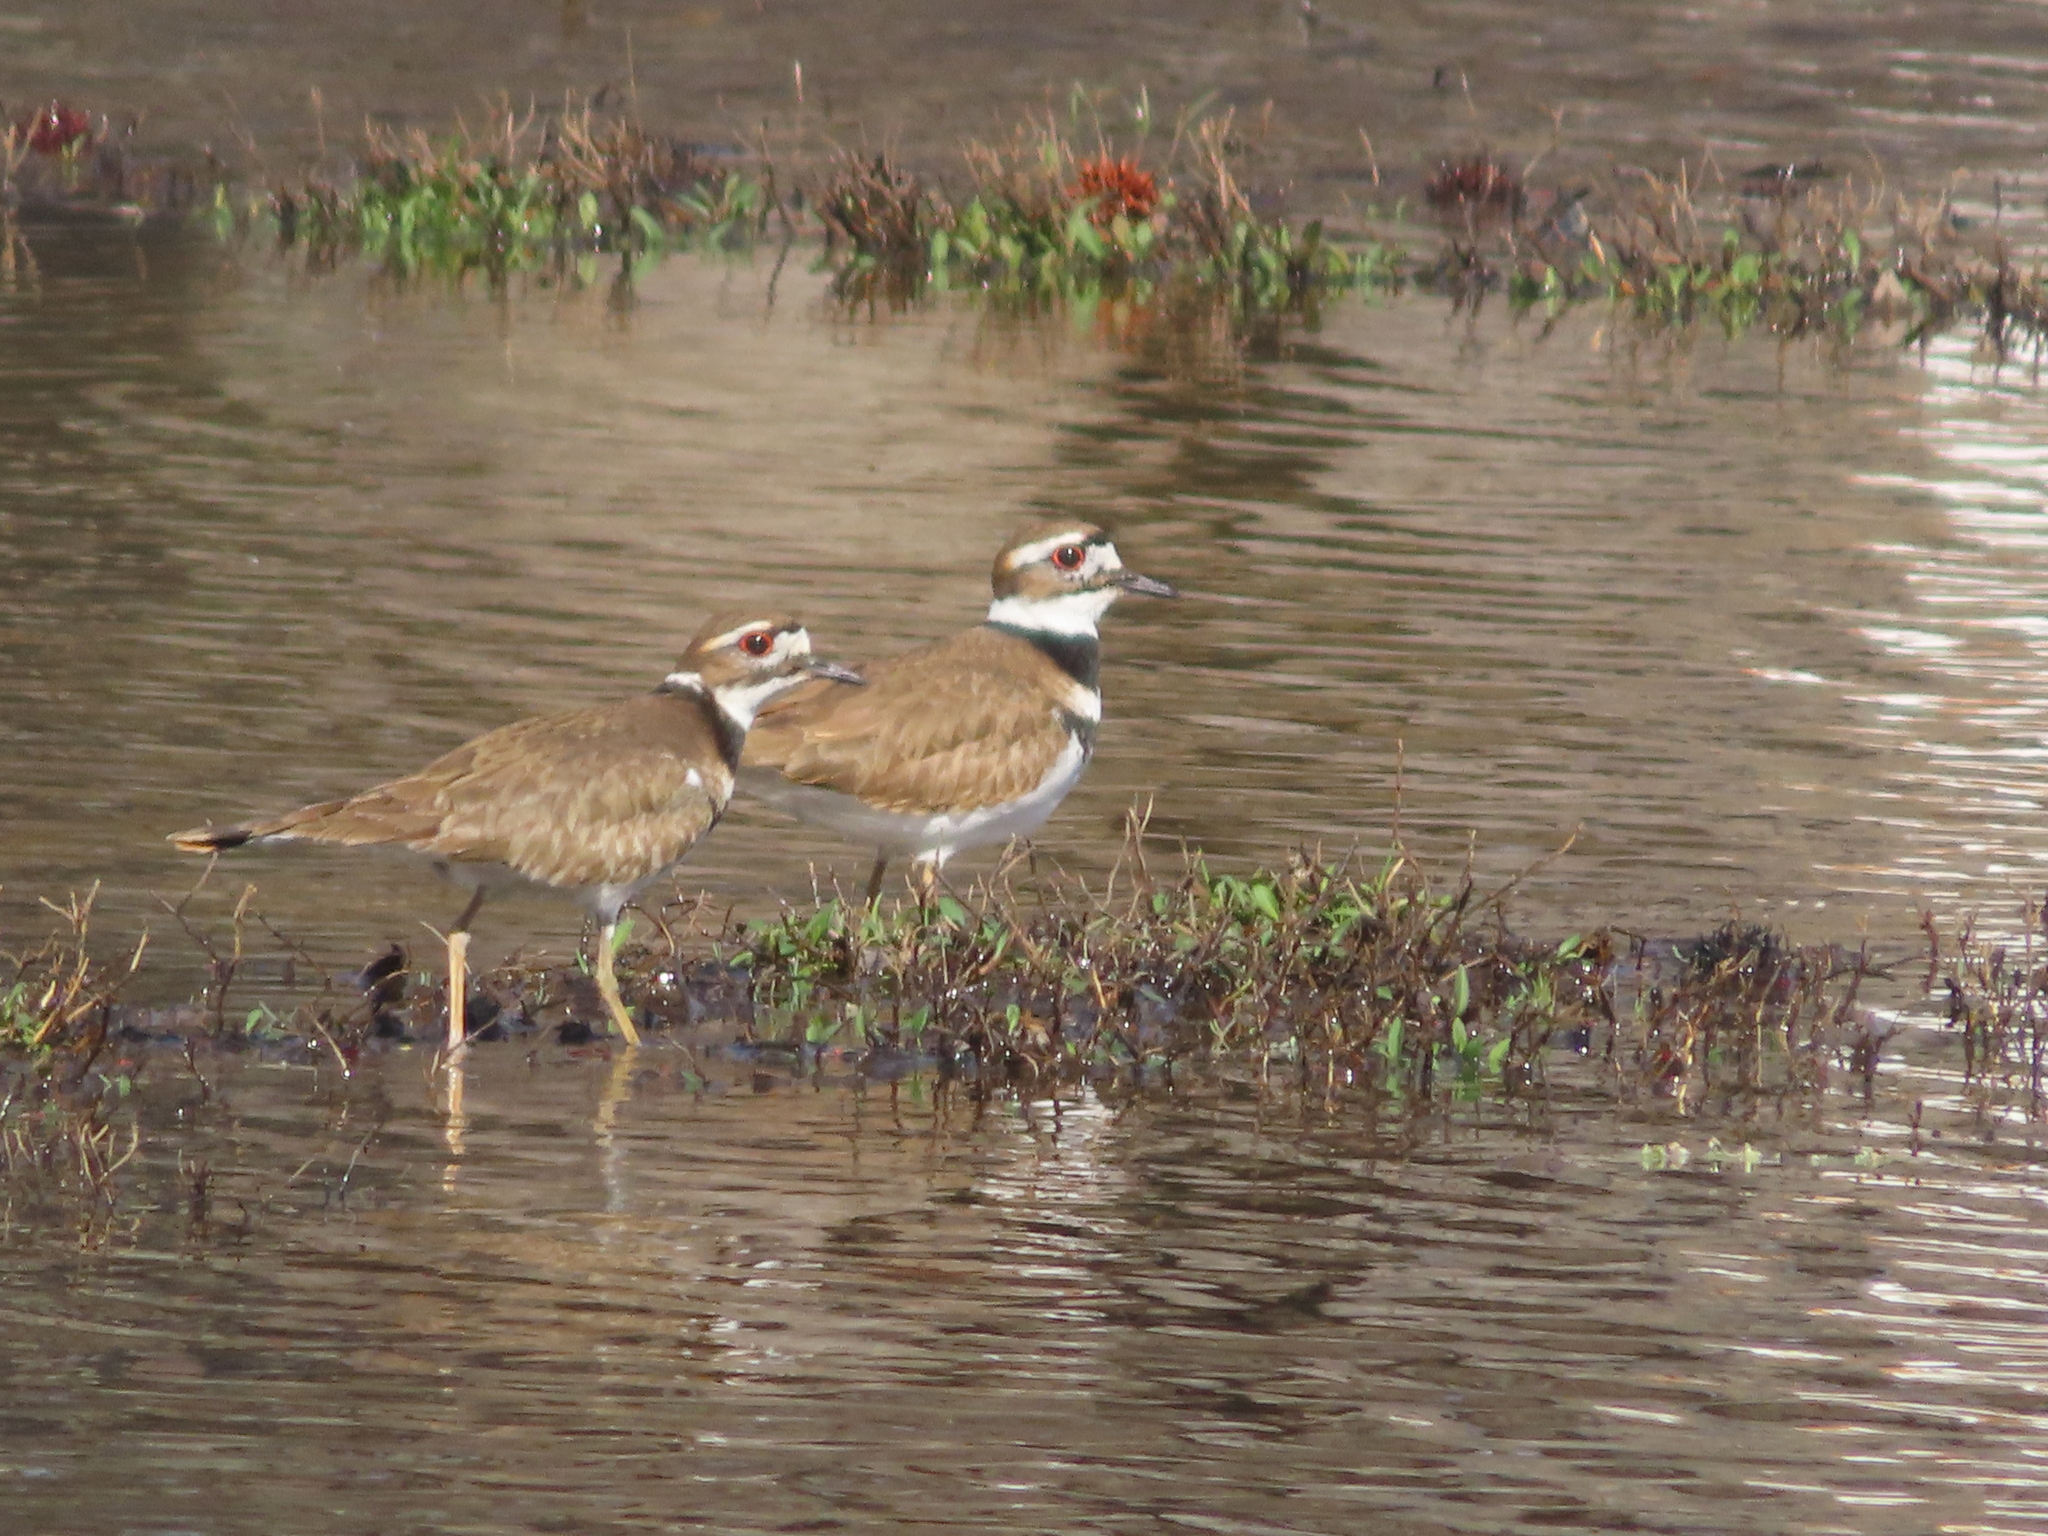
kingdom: Animalia
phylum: Chordata
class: Aves
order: Charadriiformes
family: Charadriidae
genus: Charadrius
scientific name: Charadrius vociferus
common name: Killdeer
